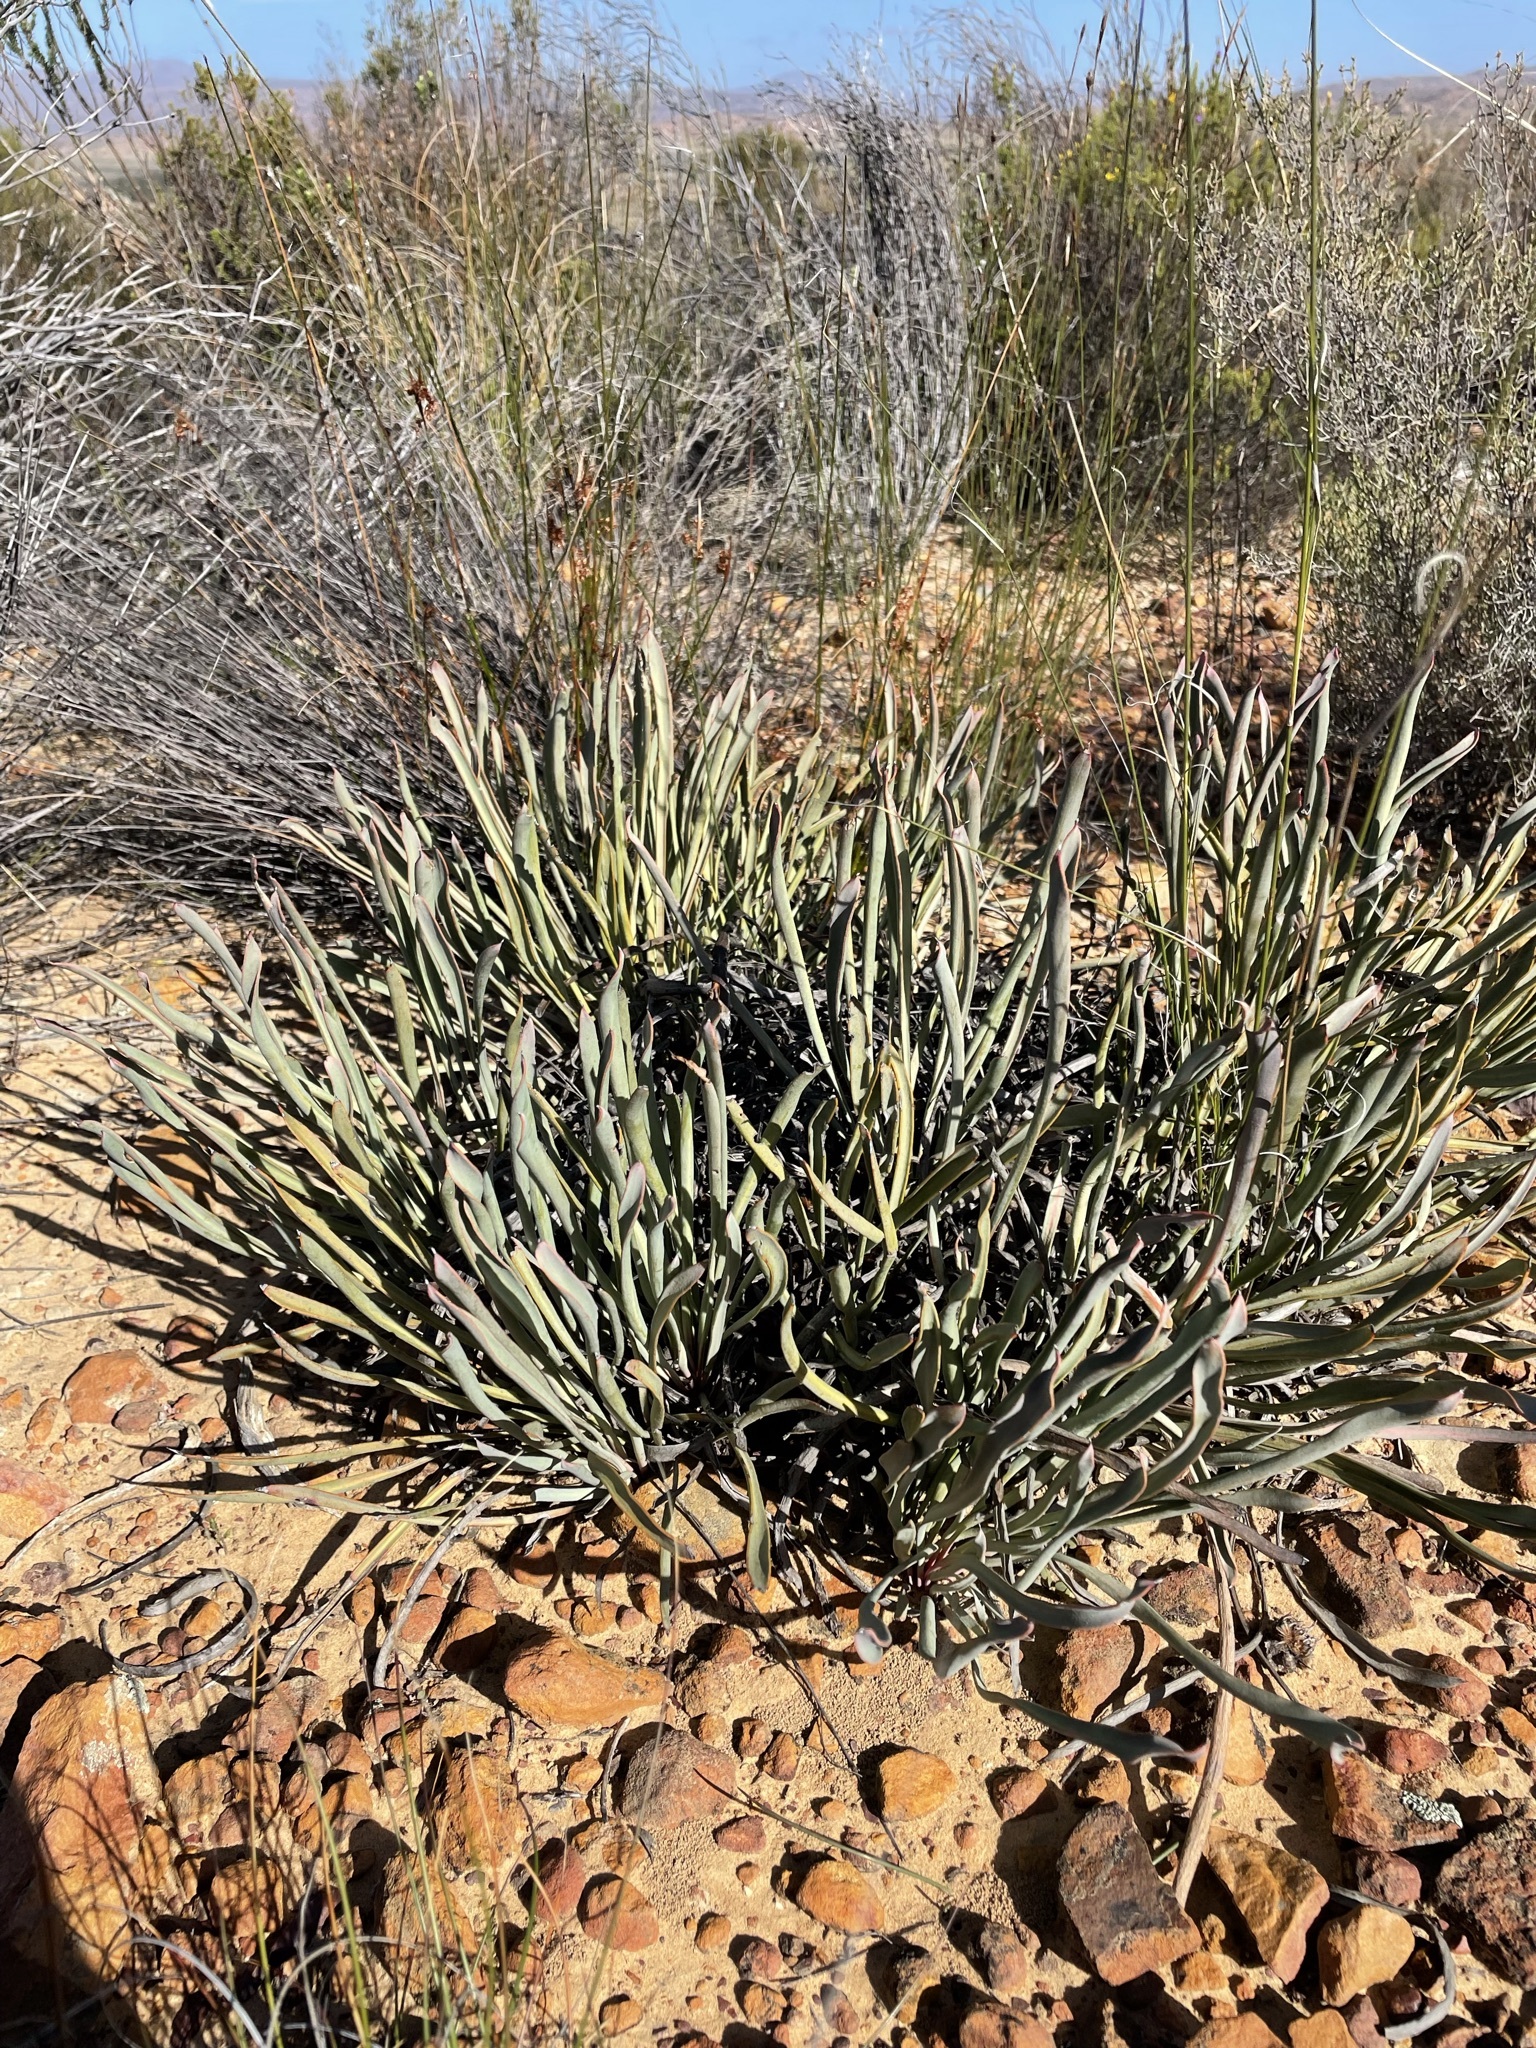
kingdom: Plantae
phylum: Tracheophyta
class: Magnoliopsida
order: Proteales
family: Proteaceae
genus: Protea
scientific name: Protea revoluta
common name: Rolled-leaf sugarbush
